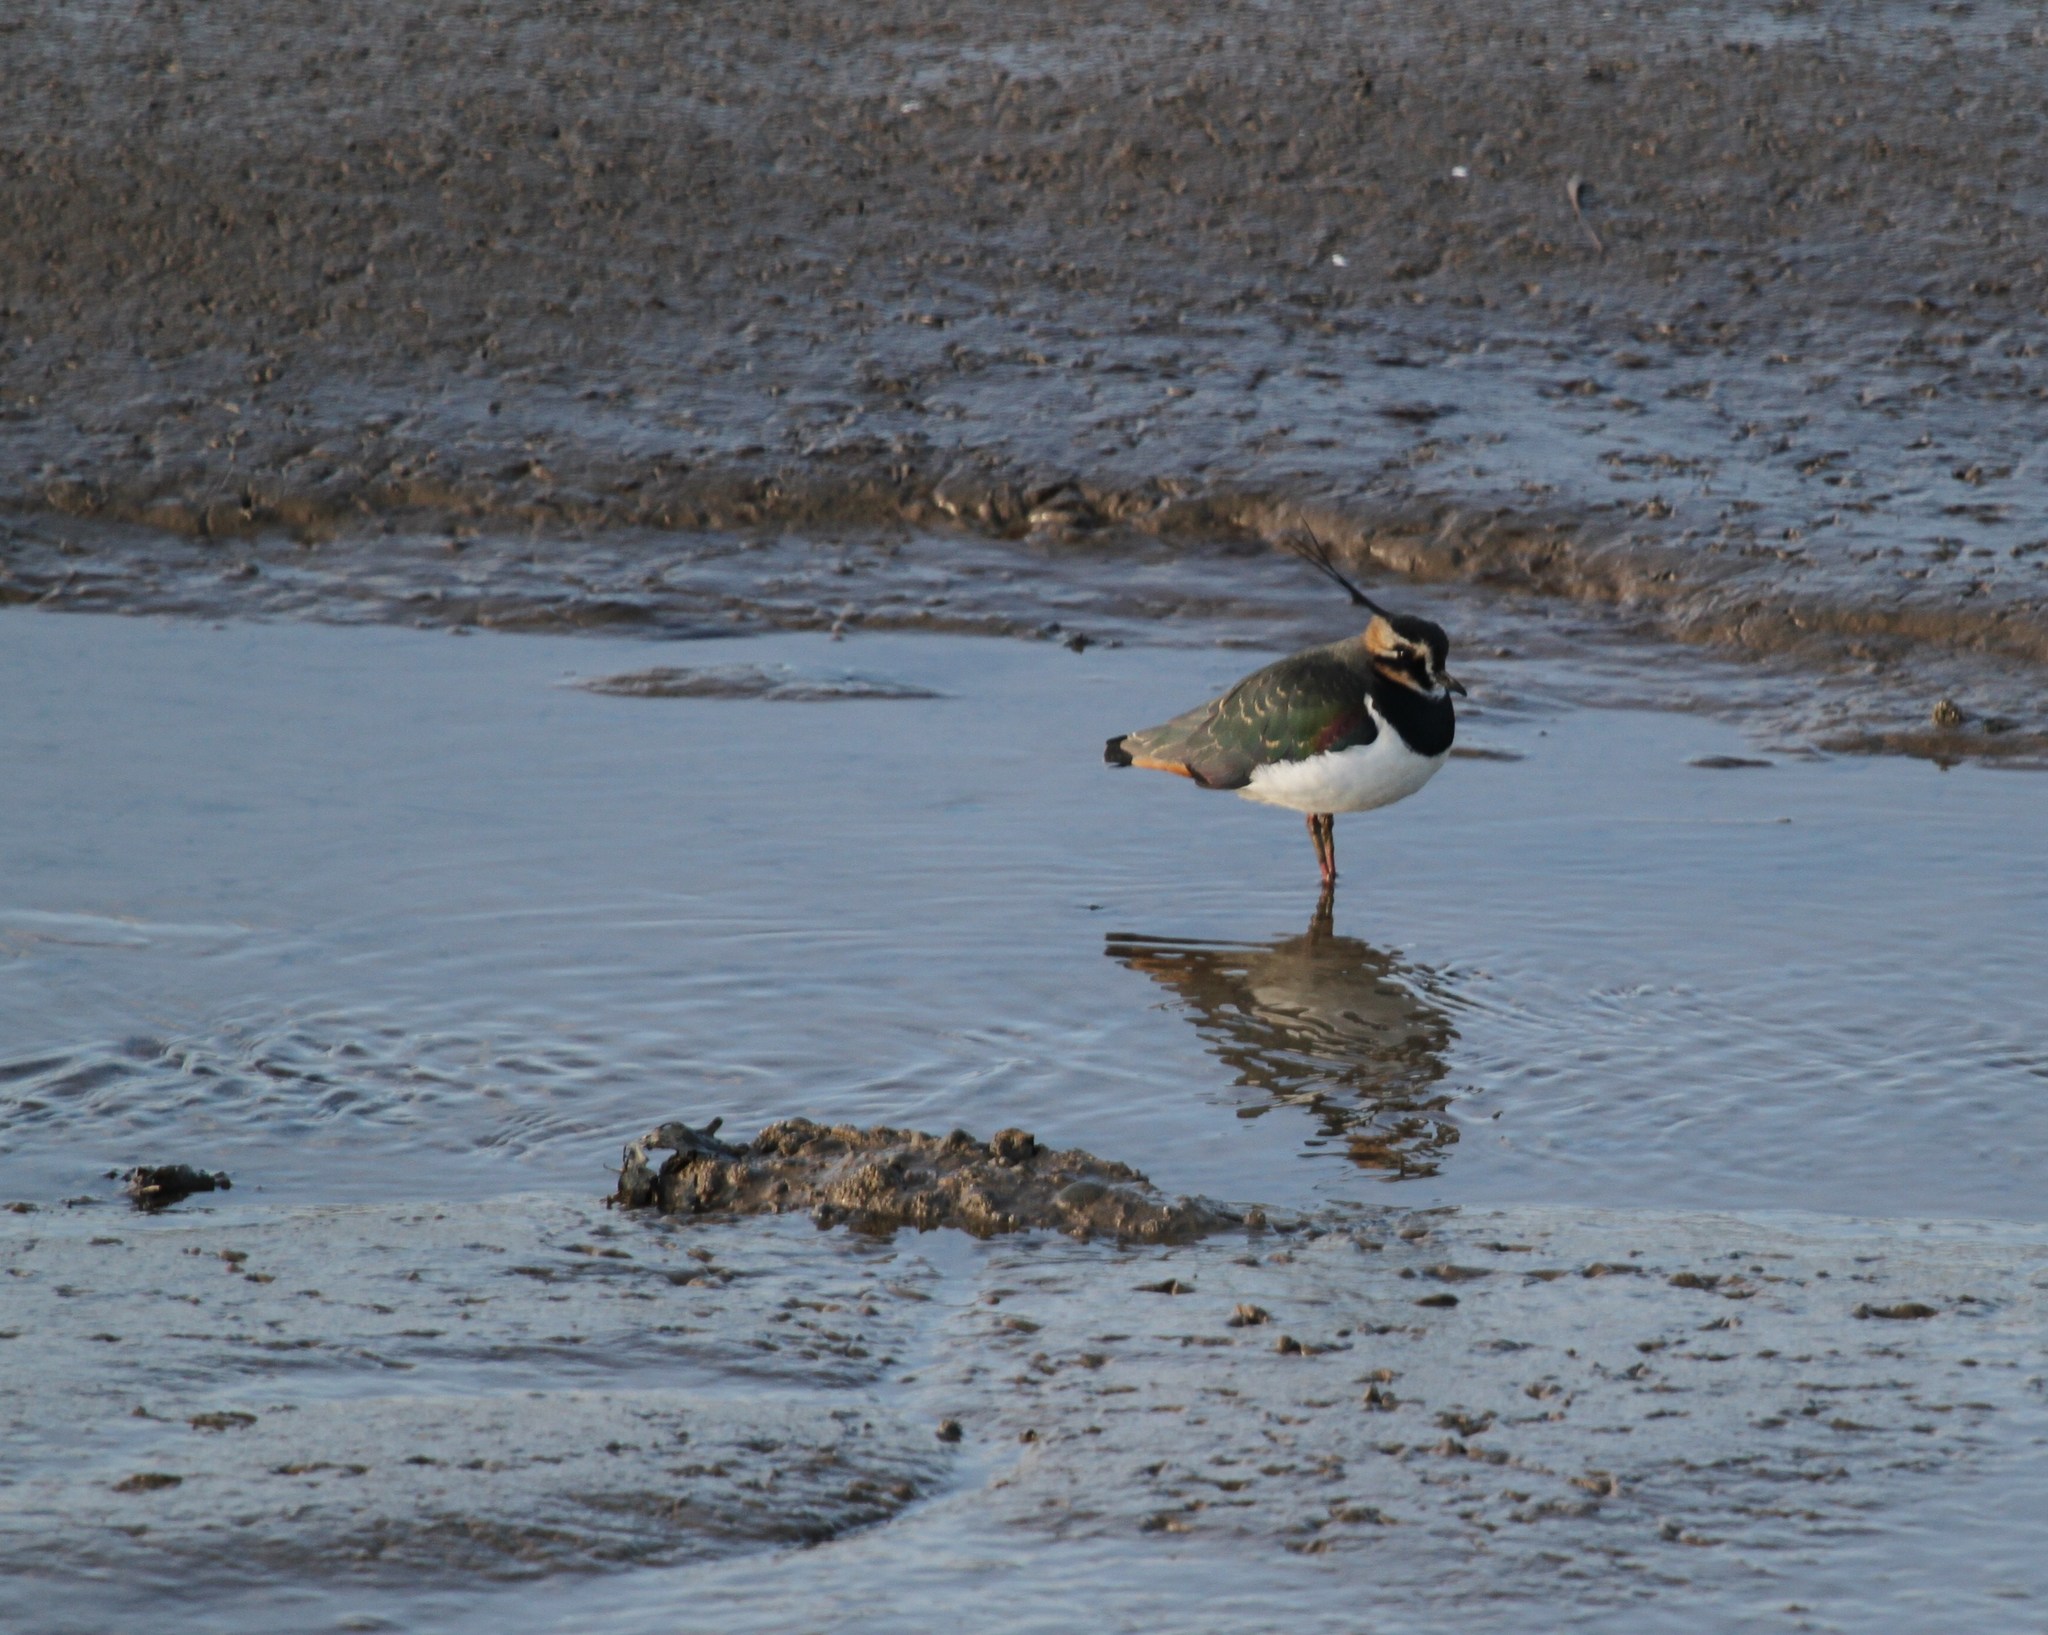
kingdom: Animalia
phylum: Chordata
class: Aves
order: Charadriiformes
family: Charadriidae
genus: Vanellus
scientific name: Vanellus vanellus
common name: Northern lapwing
